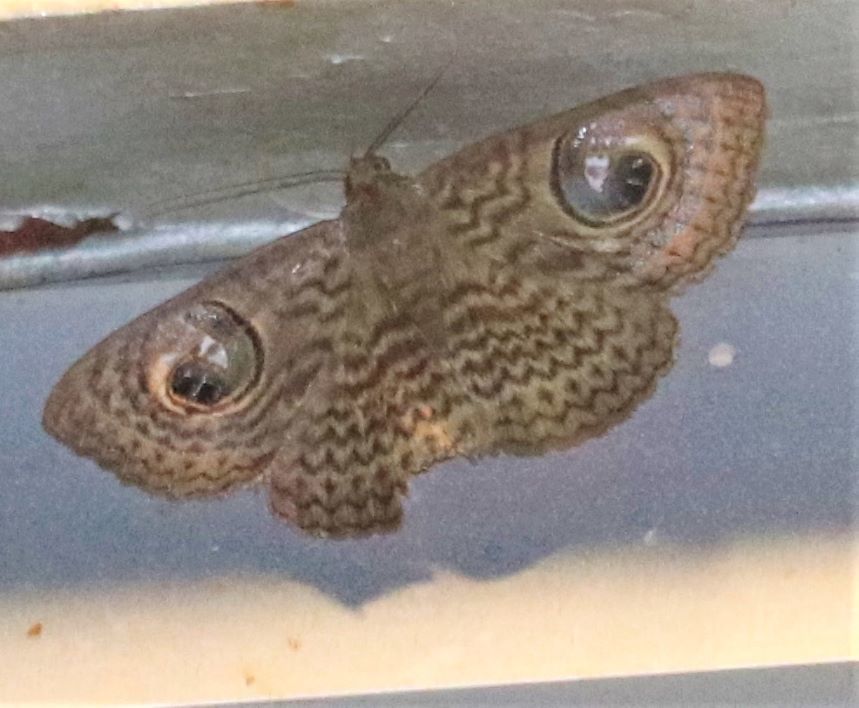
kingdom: Animalia
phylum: Arthropoda
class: Insecta
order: Lepidoptera
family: Erebidae
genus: Calliodes
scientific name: Calliodes pretiosissima
